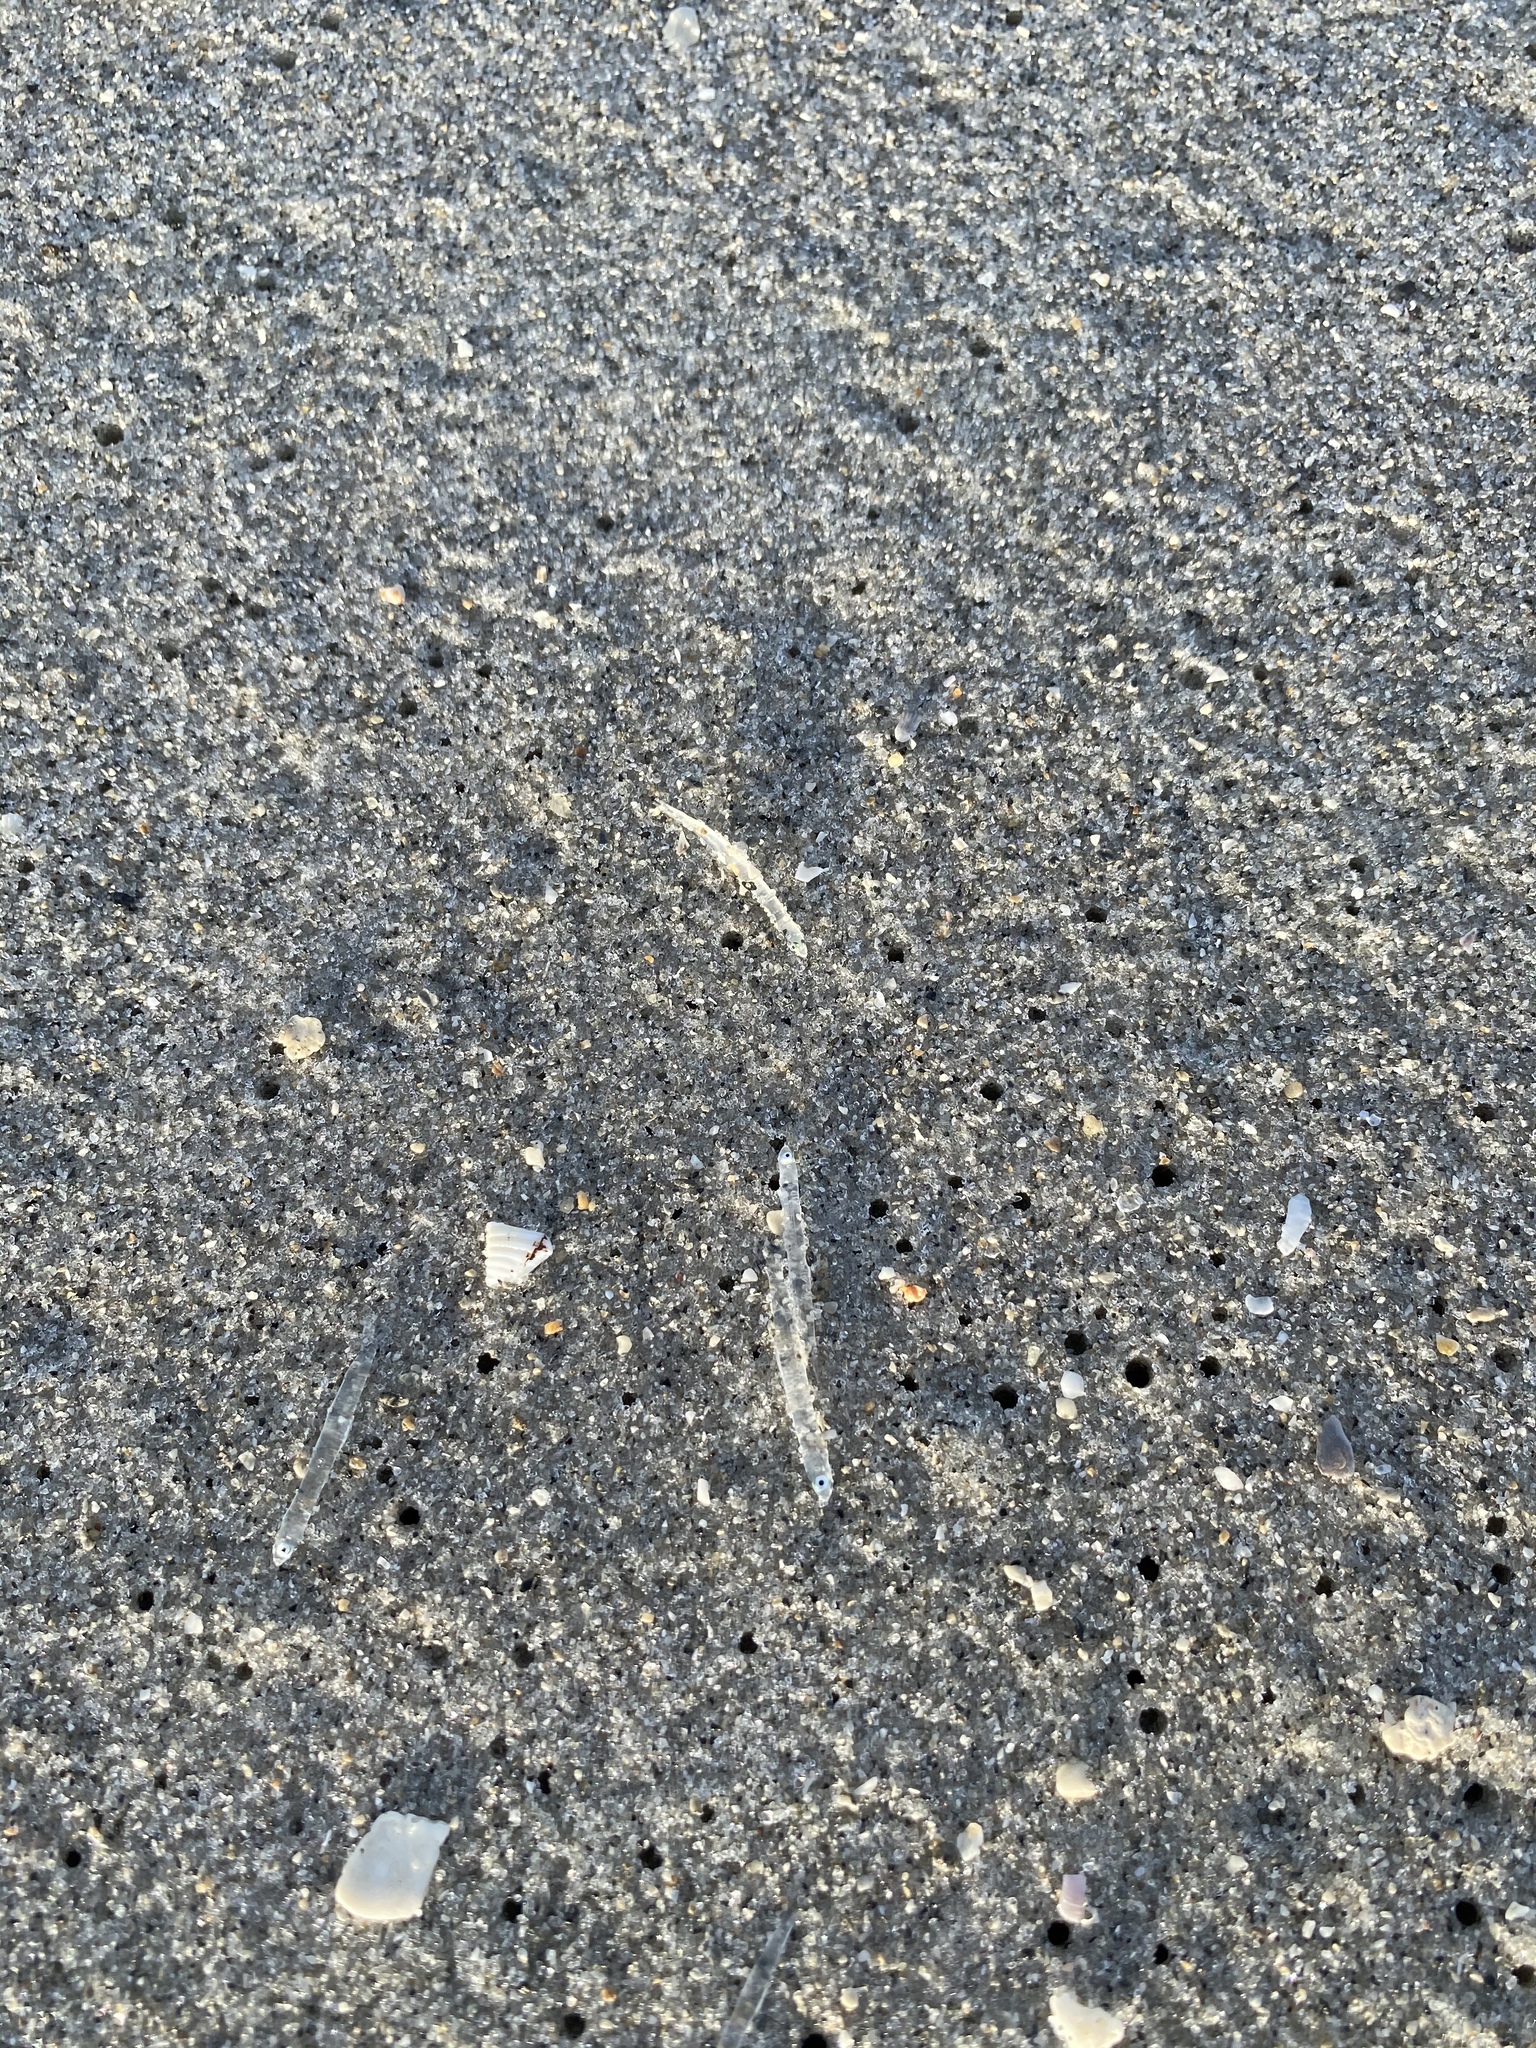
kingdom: Animalia
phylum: Chordata
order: Clupeiformes
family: Engraulidae
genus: Anchoa
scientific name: Anchoa mitchilli
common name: Bay anchovy
